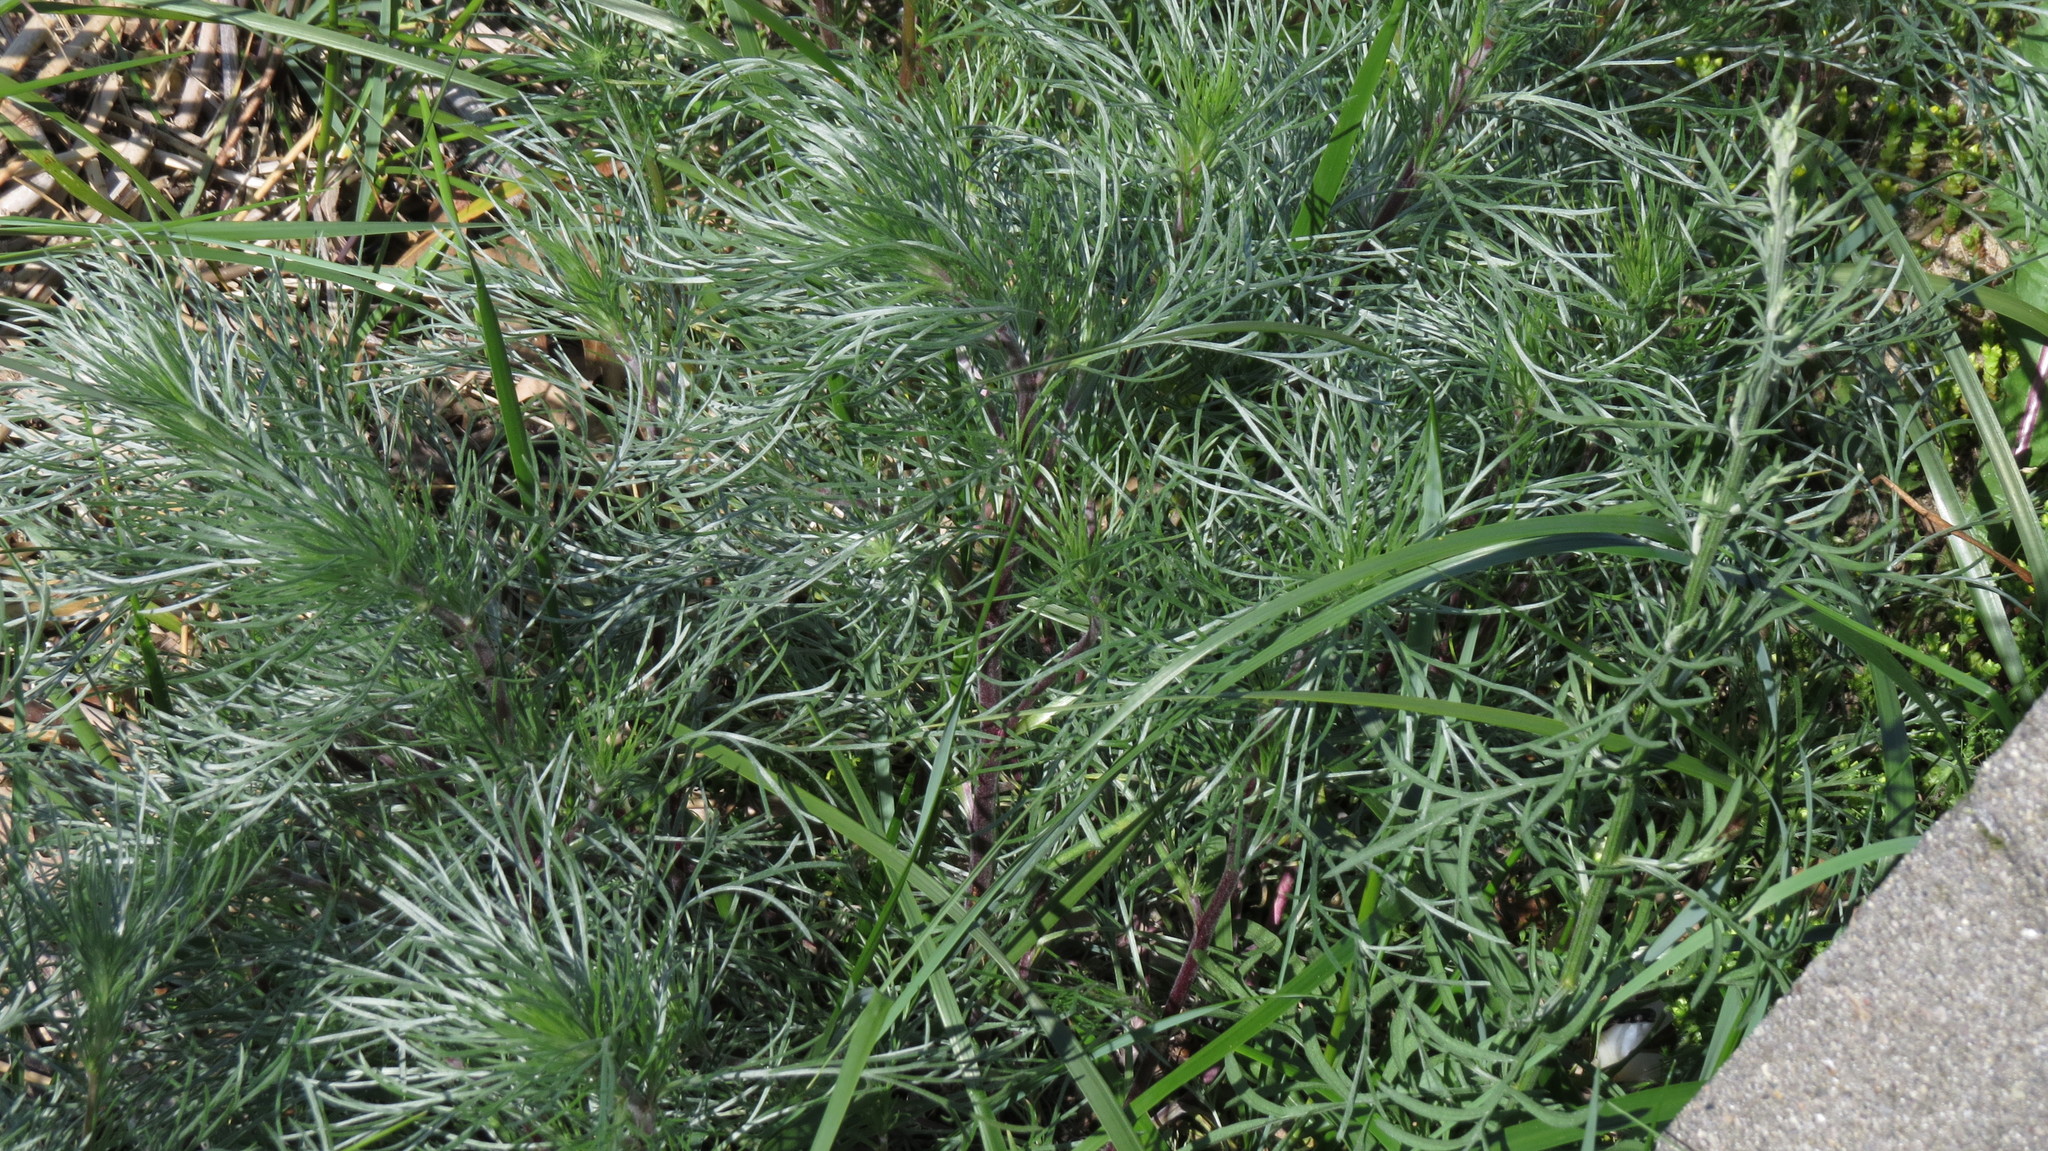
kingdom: Plantae
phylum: Tracheophyta
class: Magnoliopsida
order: Asterales
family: Asteraceae
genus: Artemisia
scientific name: Artemisia campestris
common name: Field wormwood
